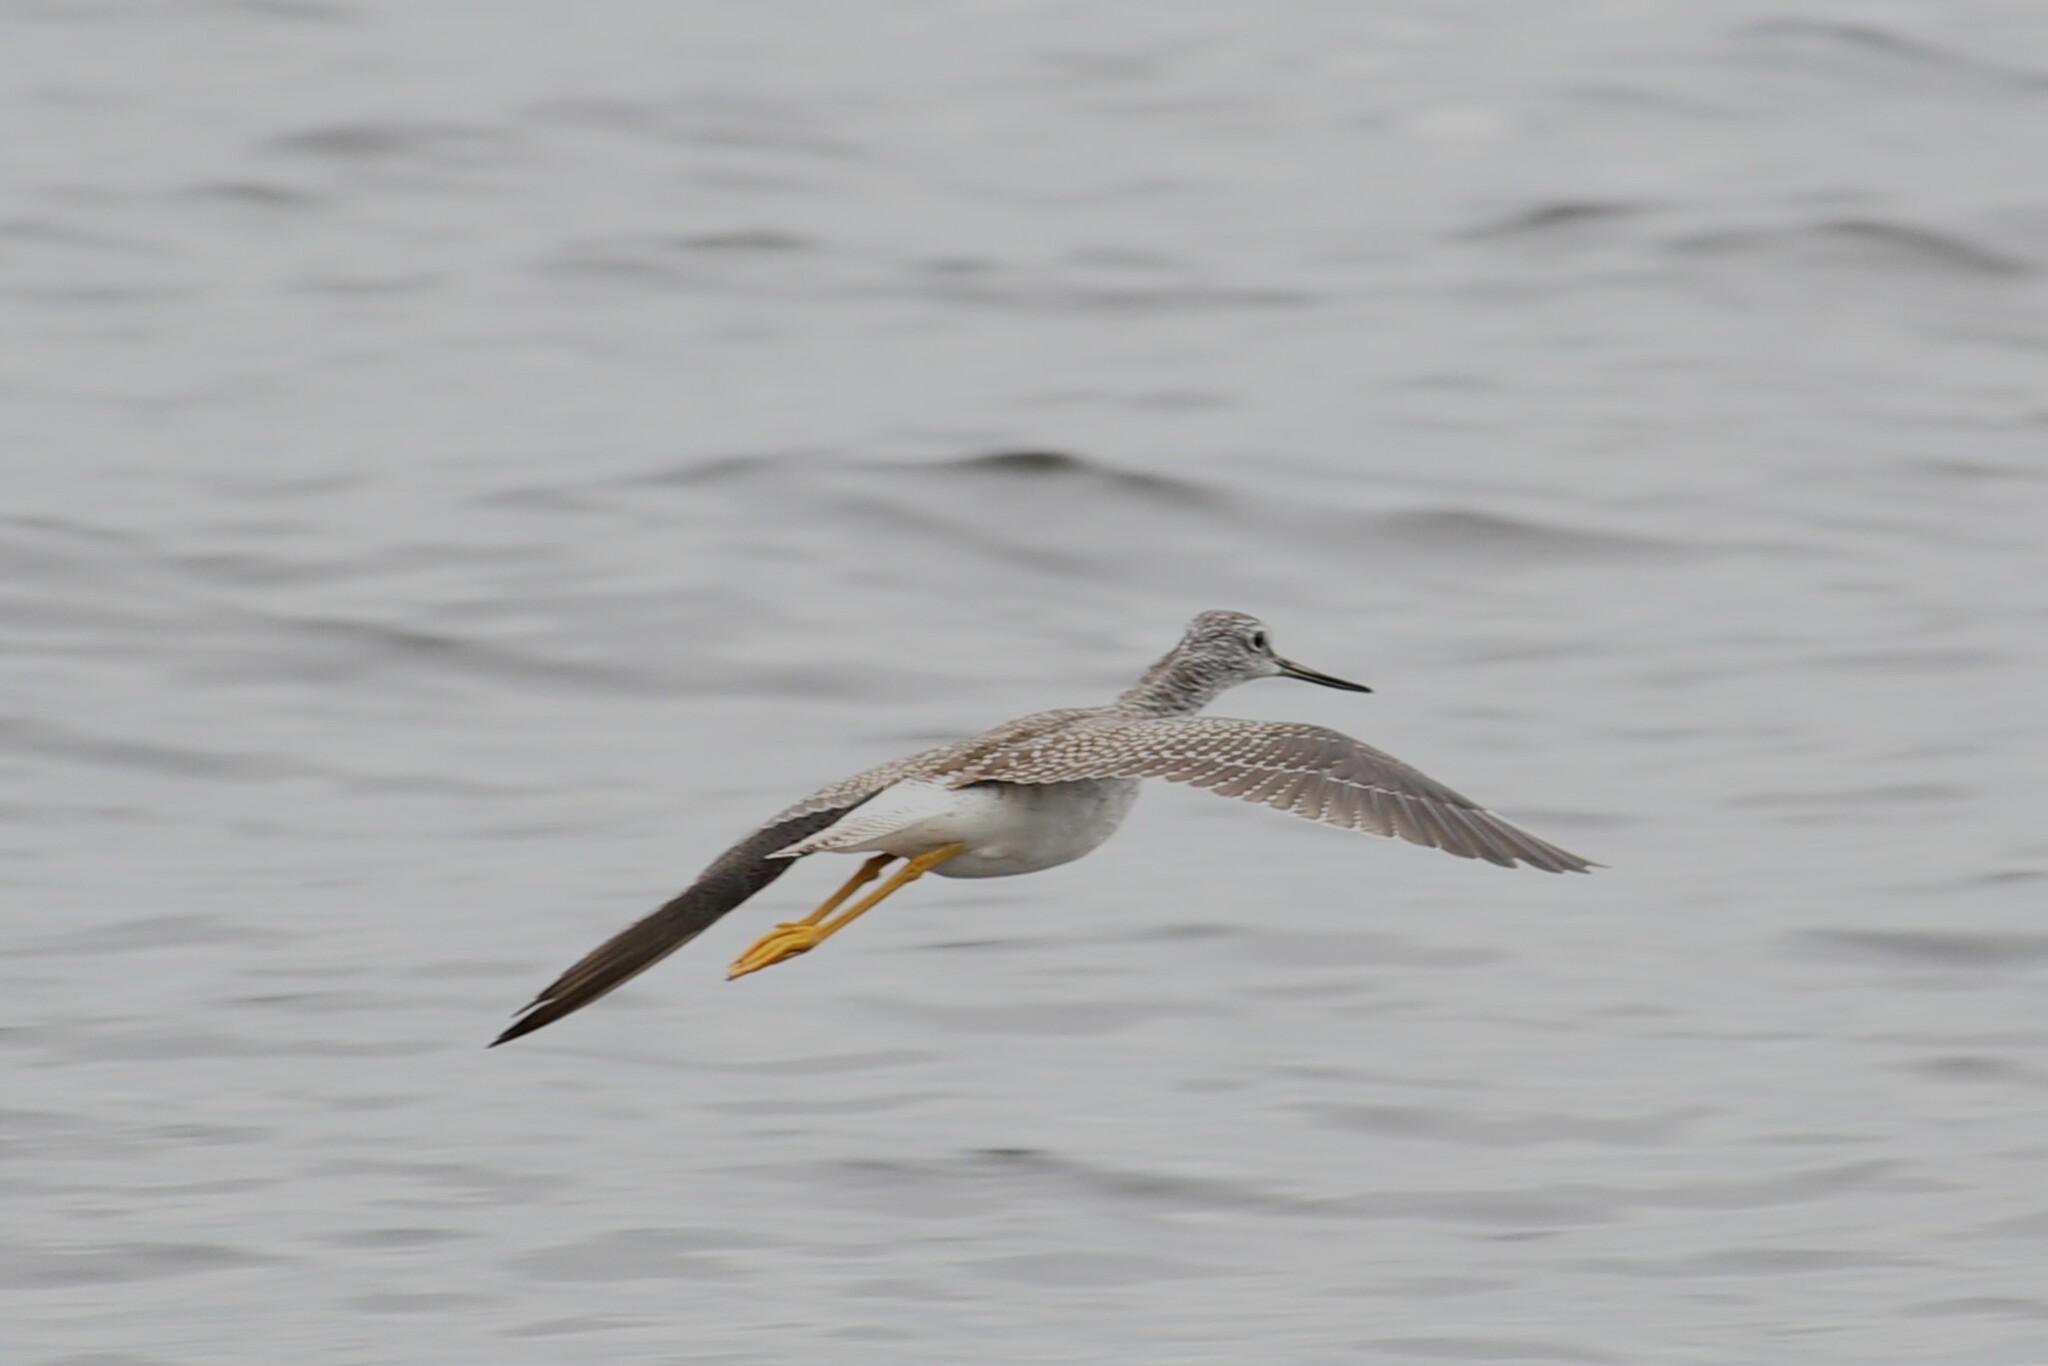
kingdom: Animalia
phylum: Chordata
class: Aves
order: Charadriiformes
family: Scolopacidae
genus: Tringa
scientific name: Tringa melanoleuca
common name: Greater yellowlegs
